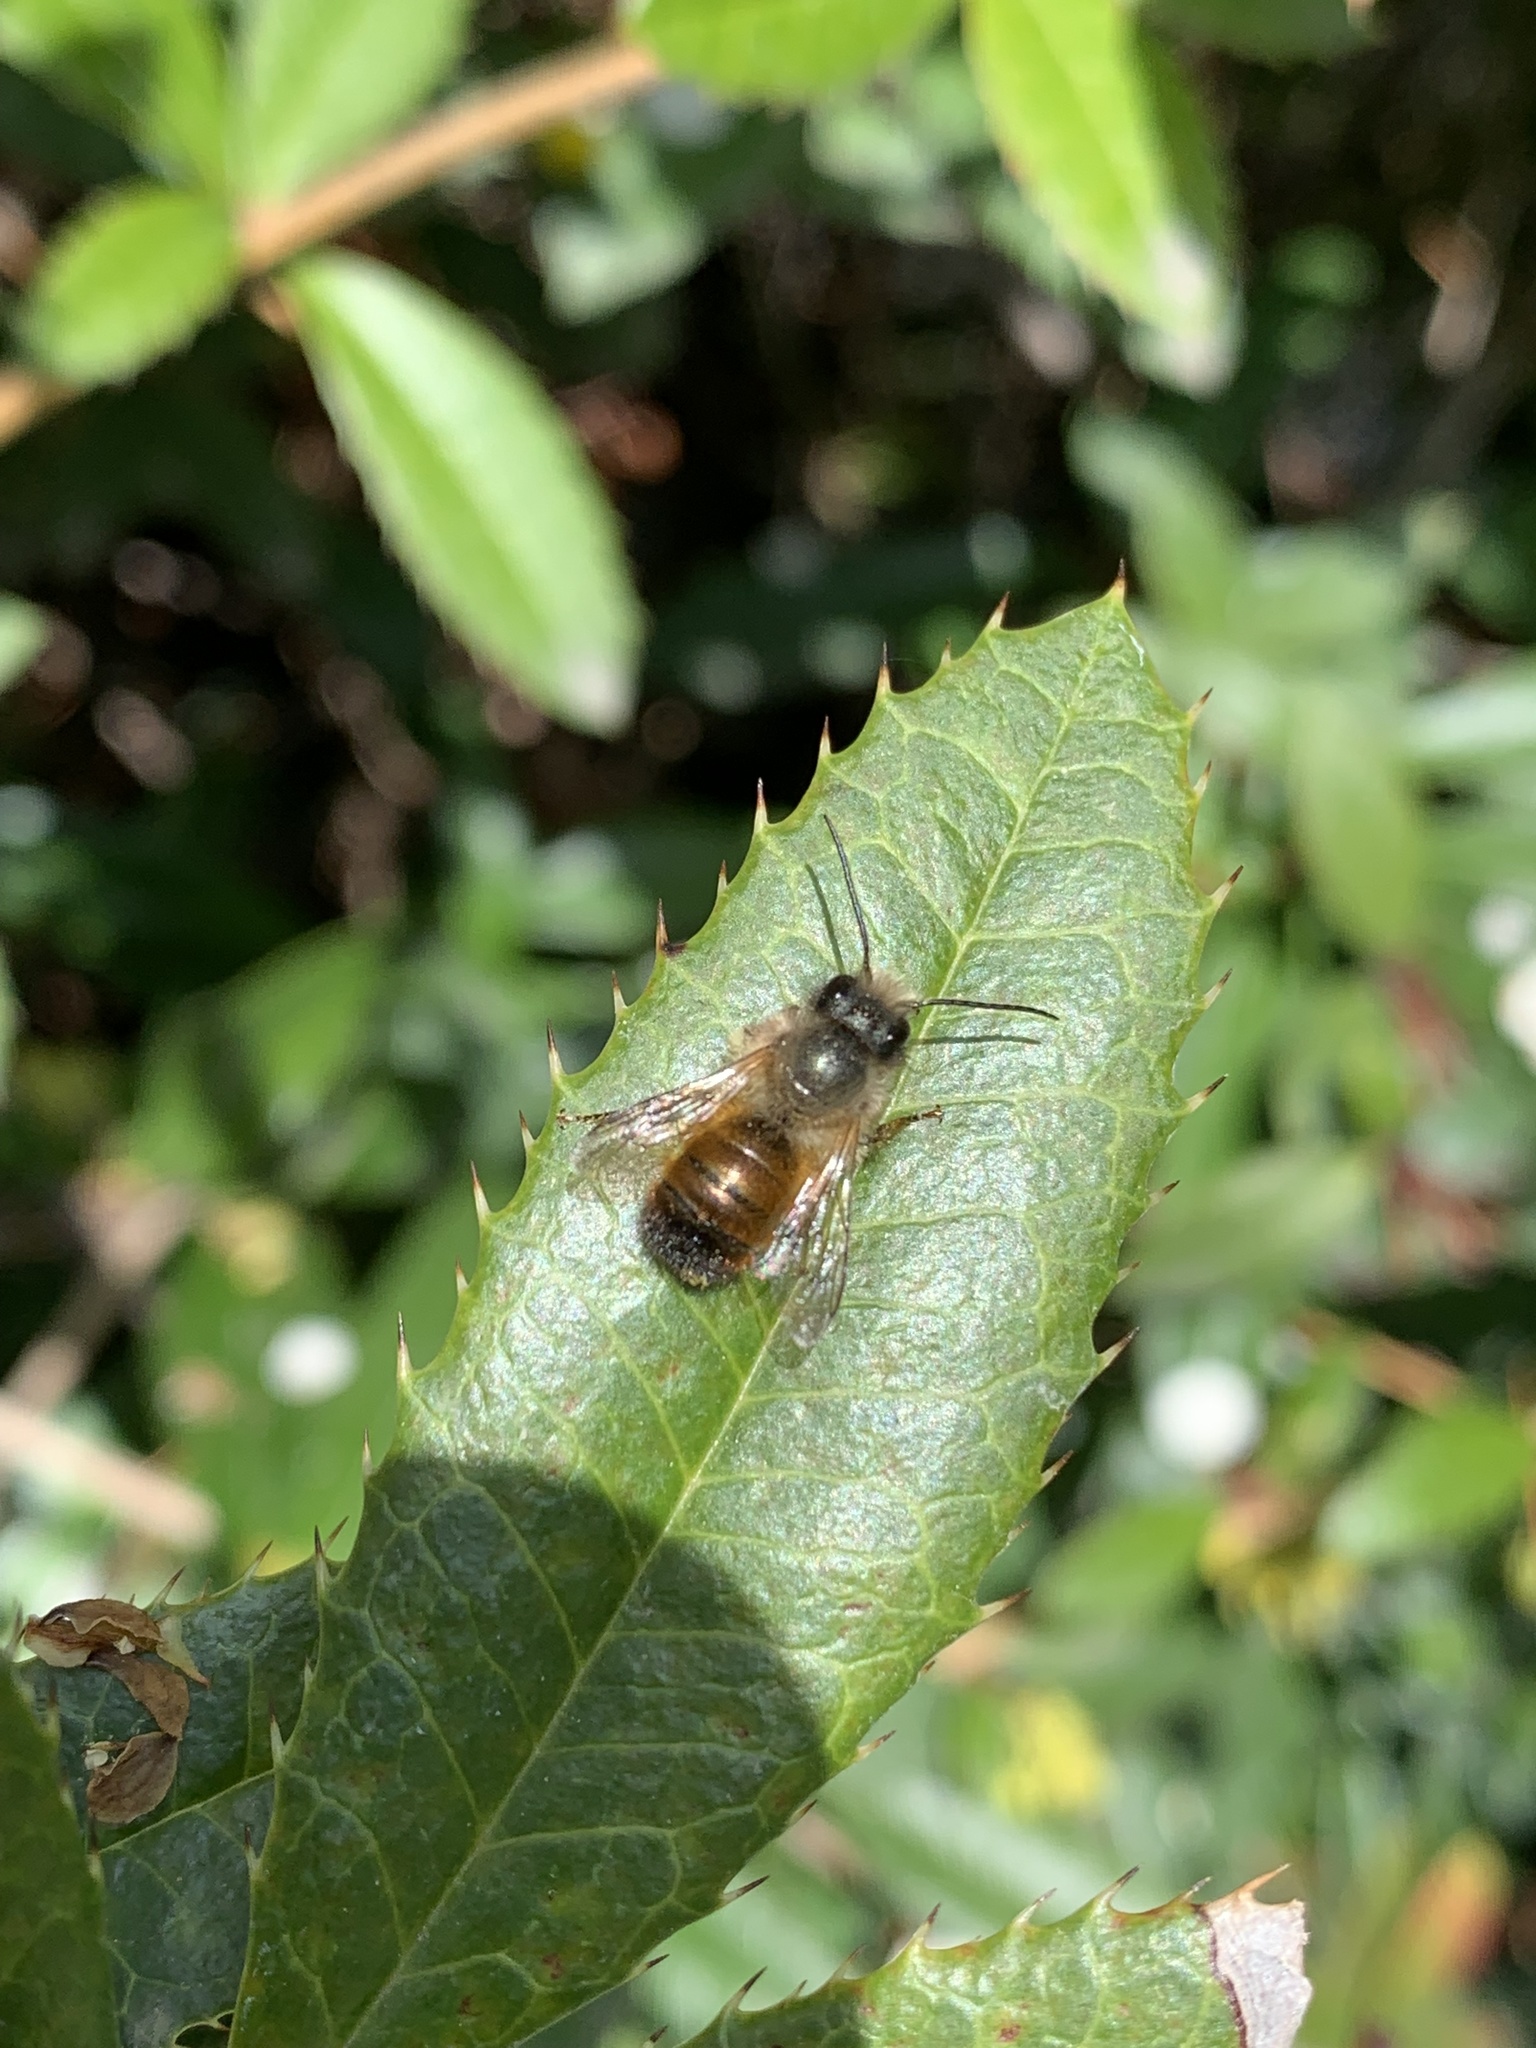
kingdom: Animalia
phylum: Arthropoda
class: Insecta
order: Hymenoptera
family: Megachilidae
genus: Osmia
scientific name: Osmia bicornis
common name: Red mason bee
